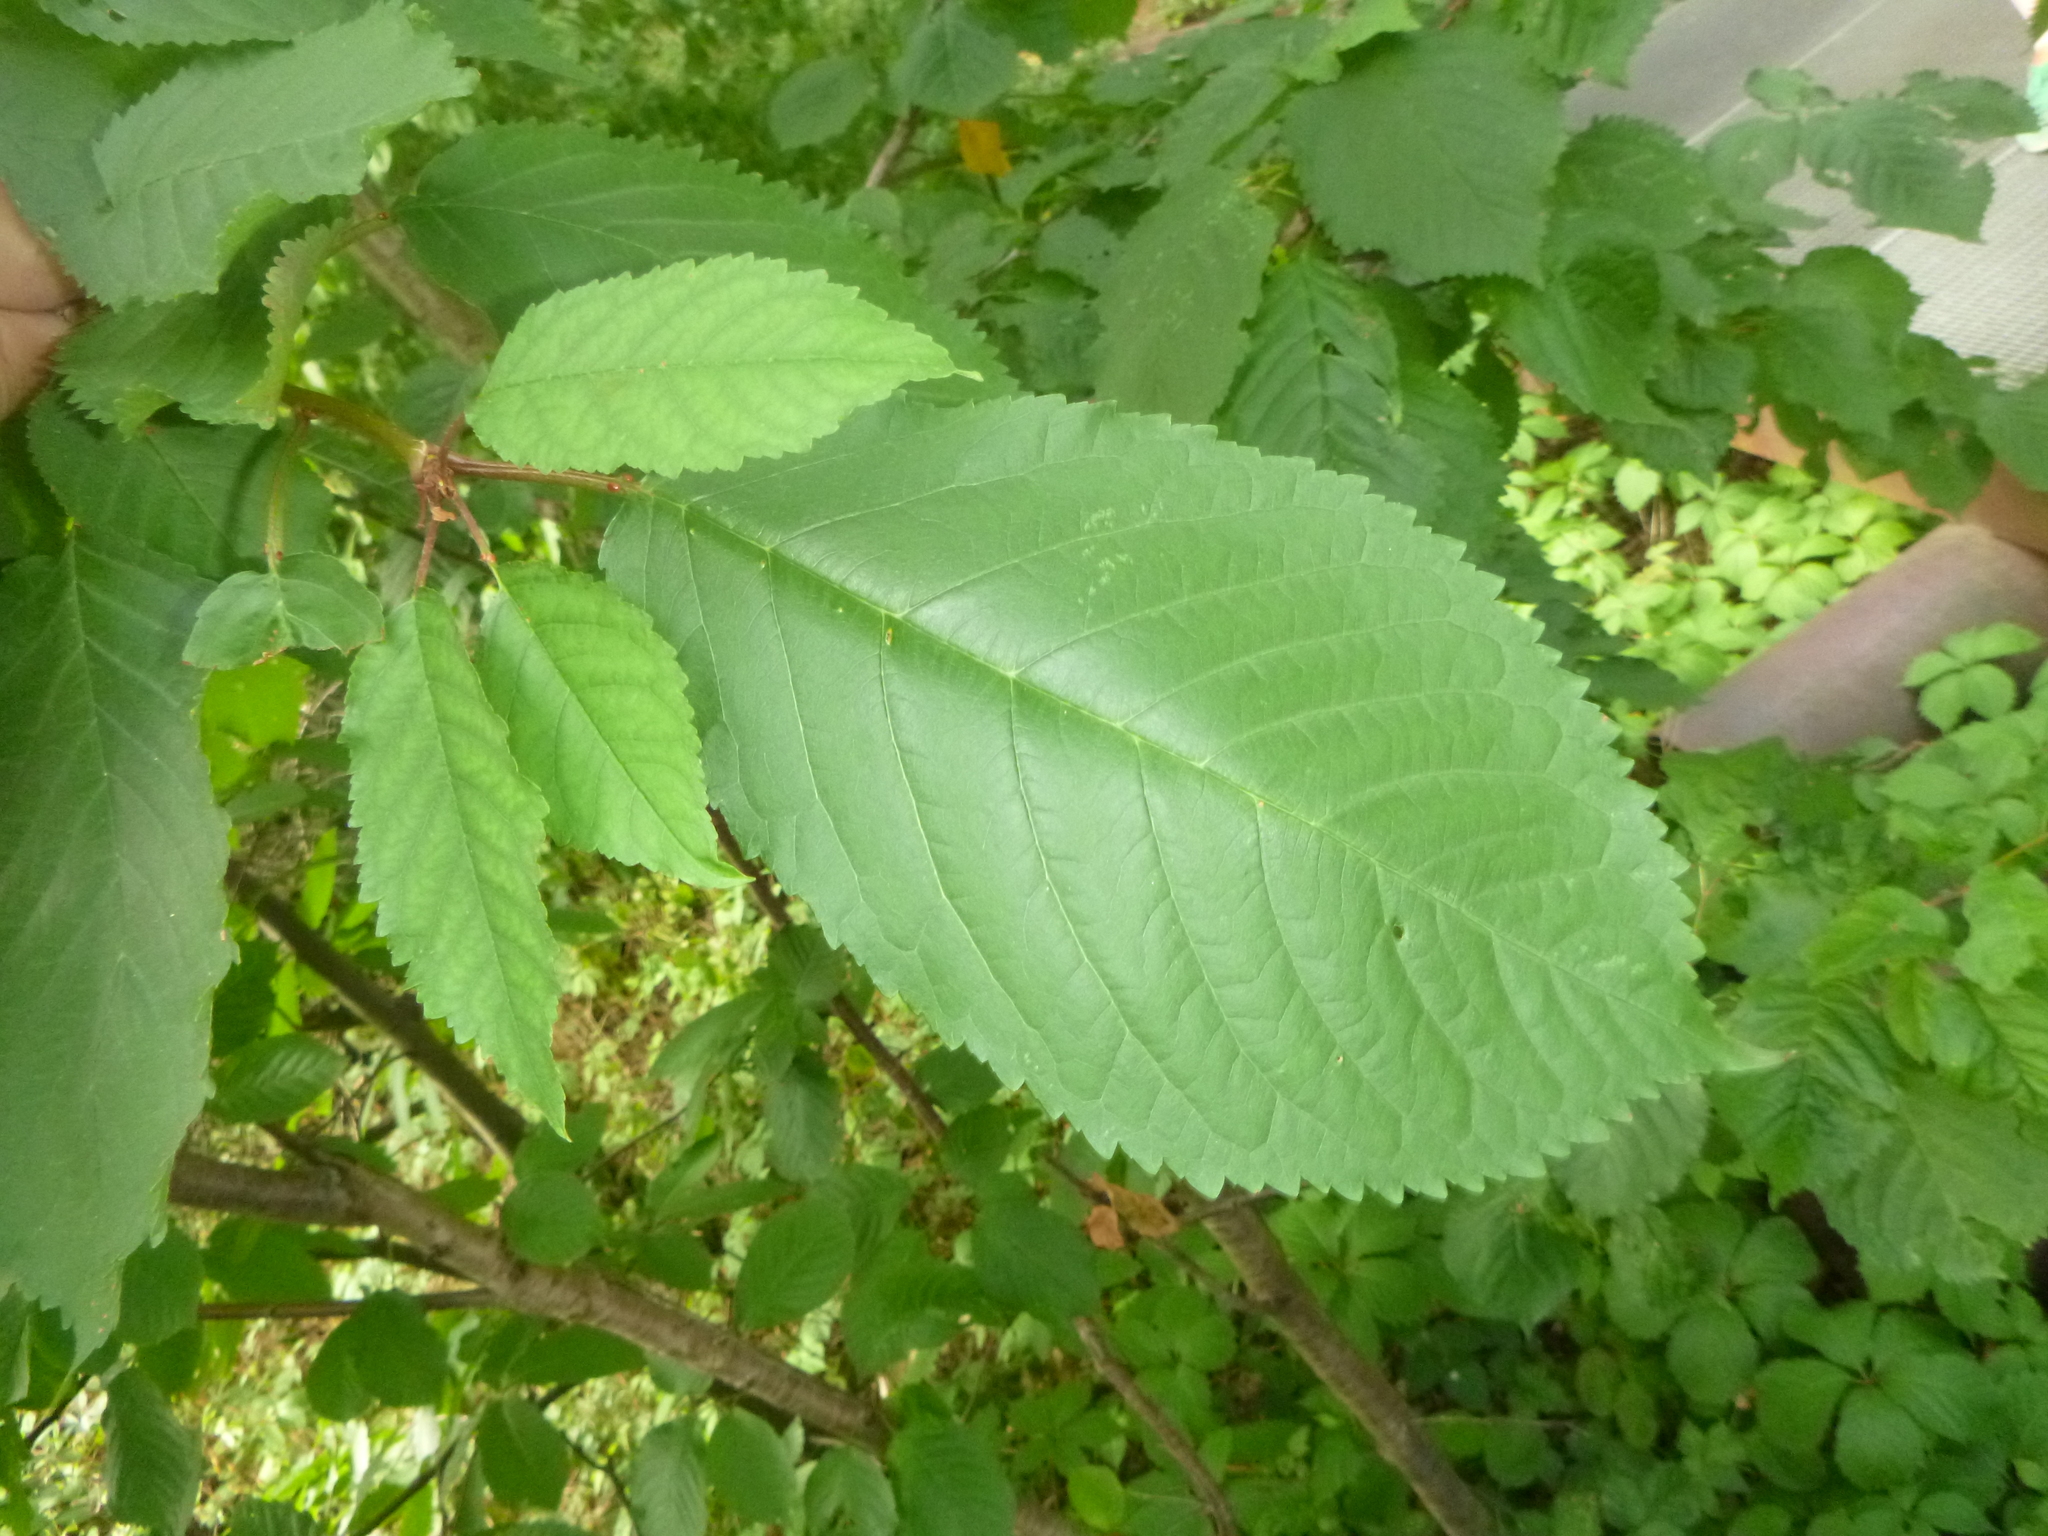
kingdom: Plantae
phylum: Tracheophyta
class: Magnoliopsida
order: Fagales
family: Fagaceae
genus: Castanea
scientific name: Castanea sativa
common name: Sweet chestnut
